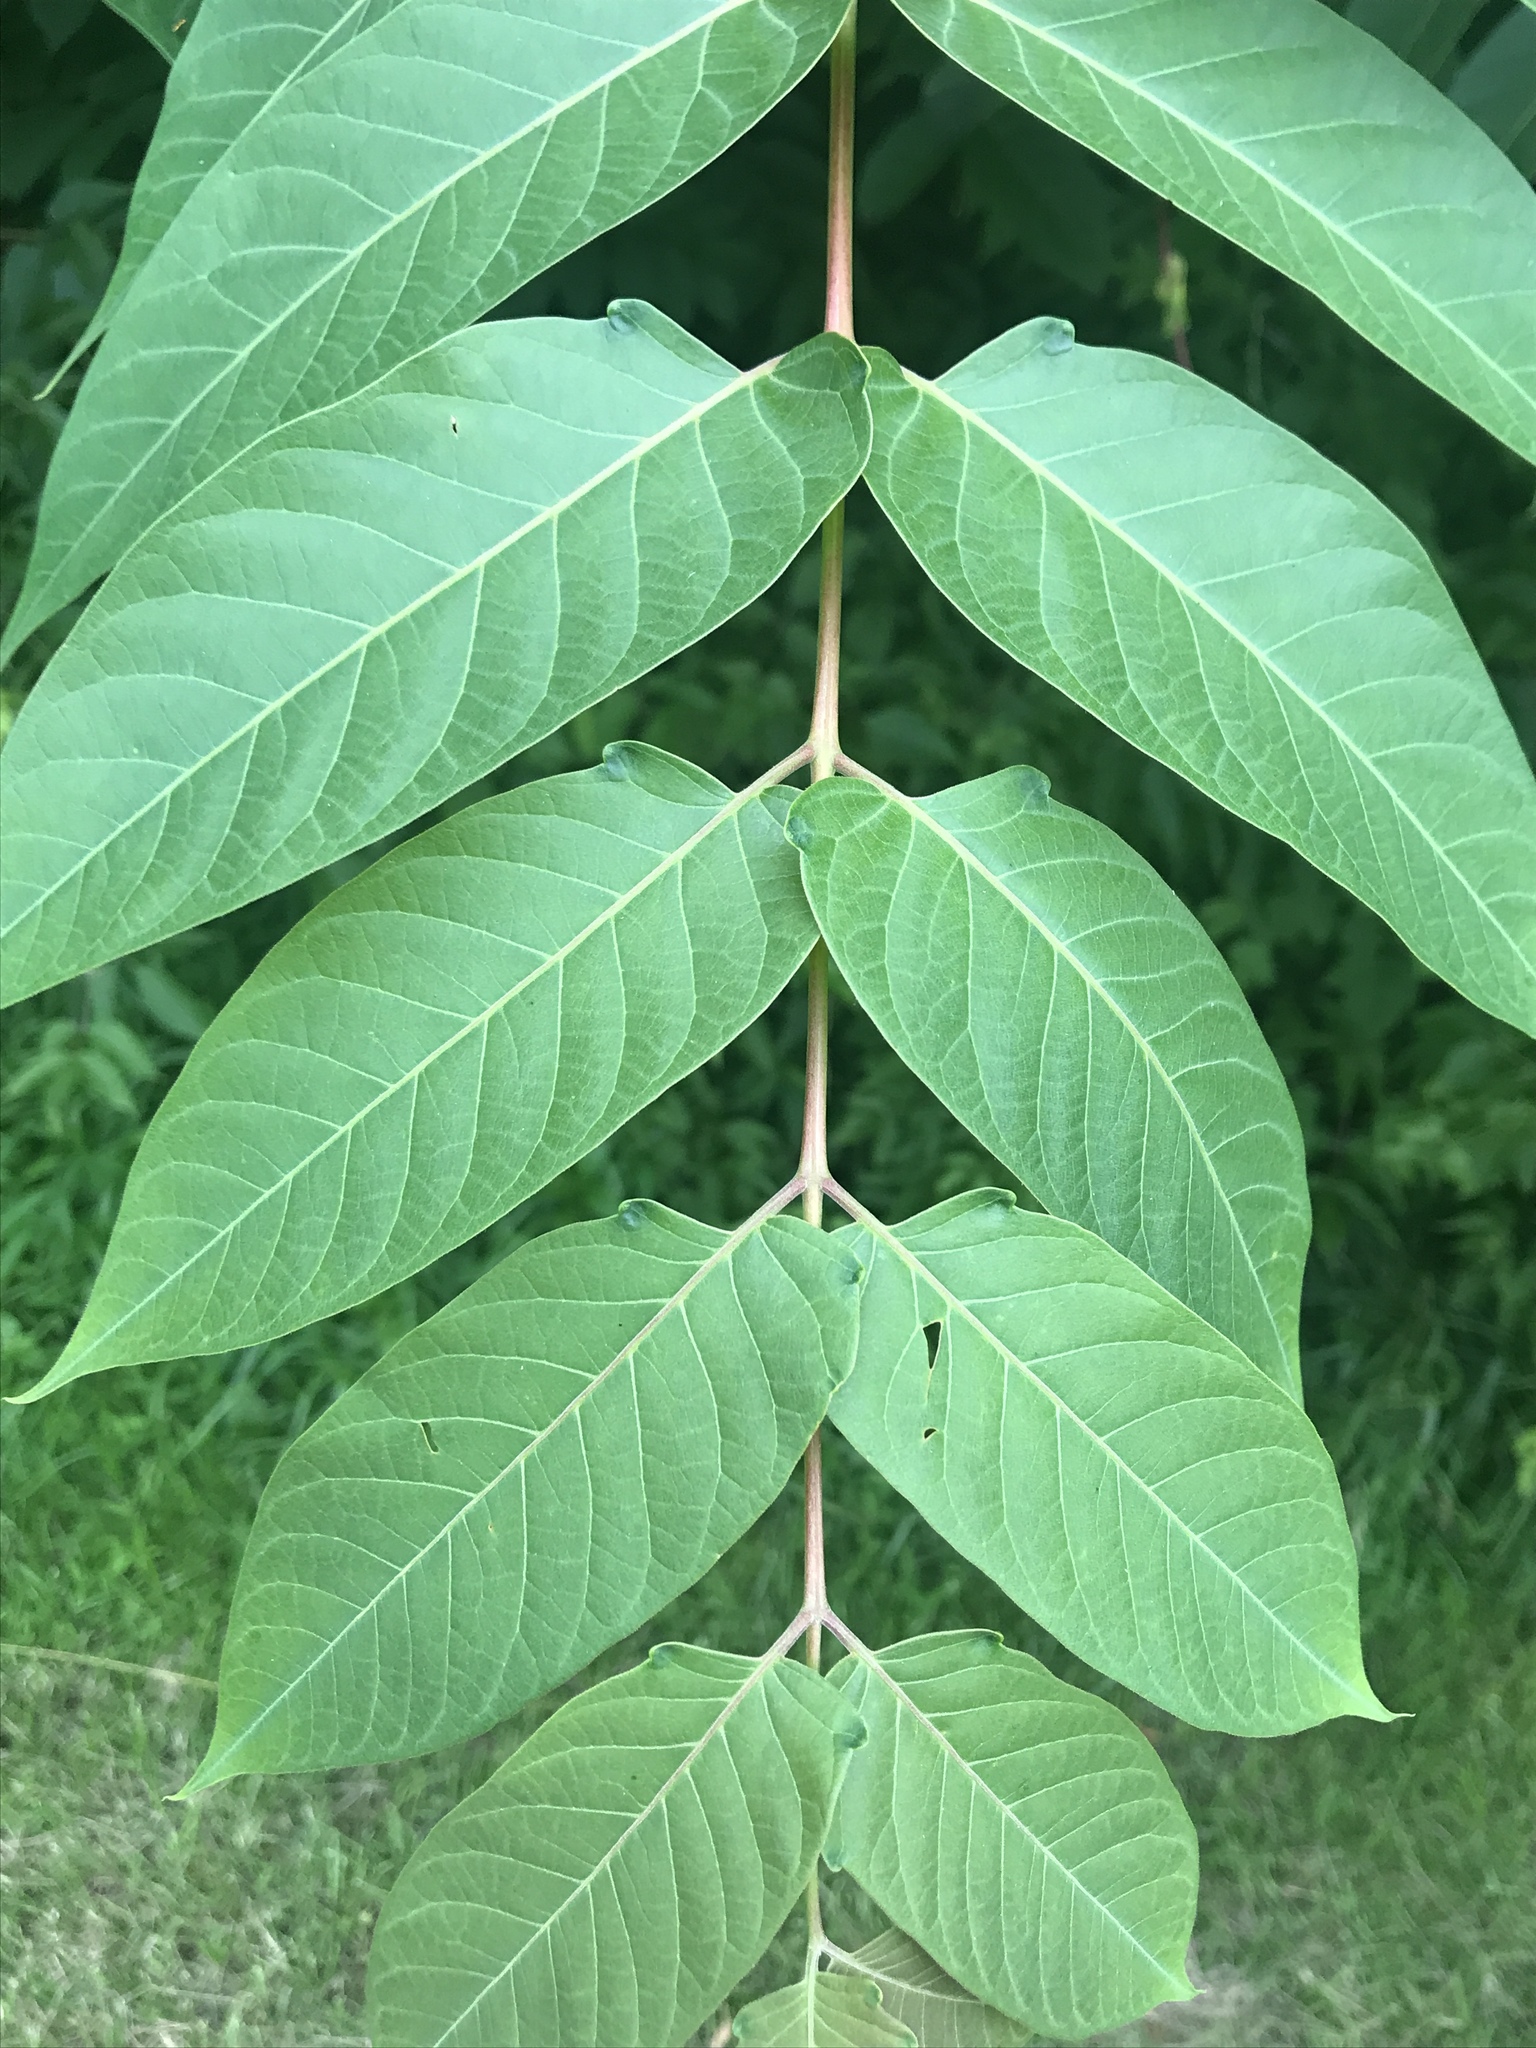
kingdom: Plantae
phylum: Tracheophyta
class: Magnoliopsida
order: Sapindales
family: Simaroubaceae
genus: Ailanthus
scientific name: Ailanthus altissima
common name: Tree-of-heaven
